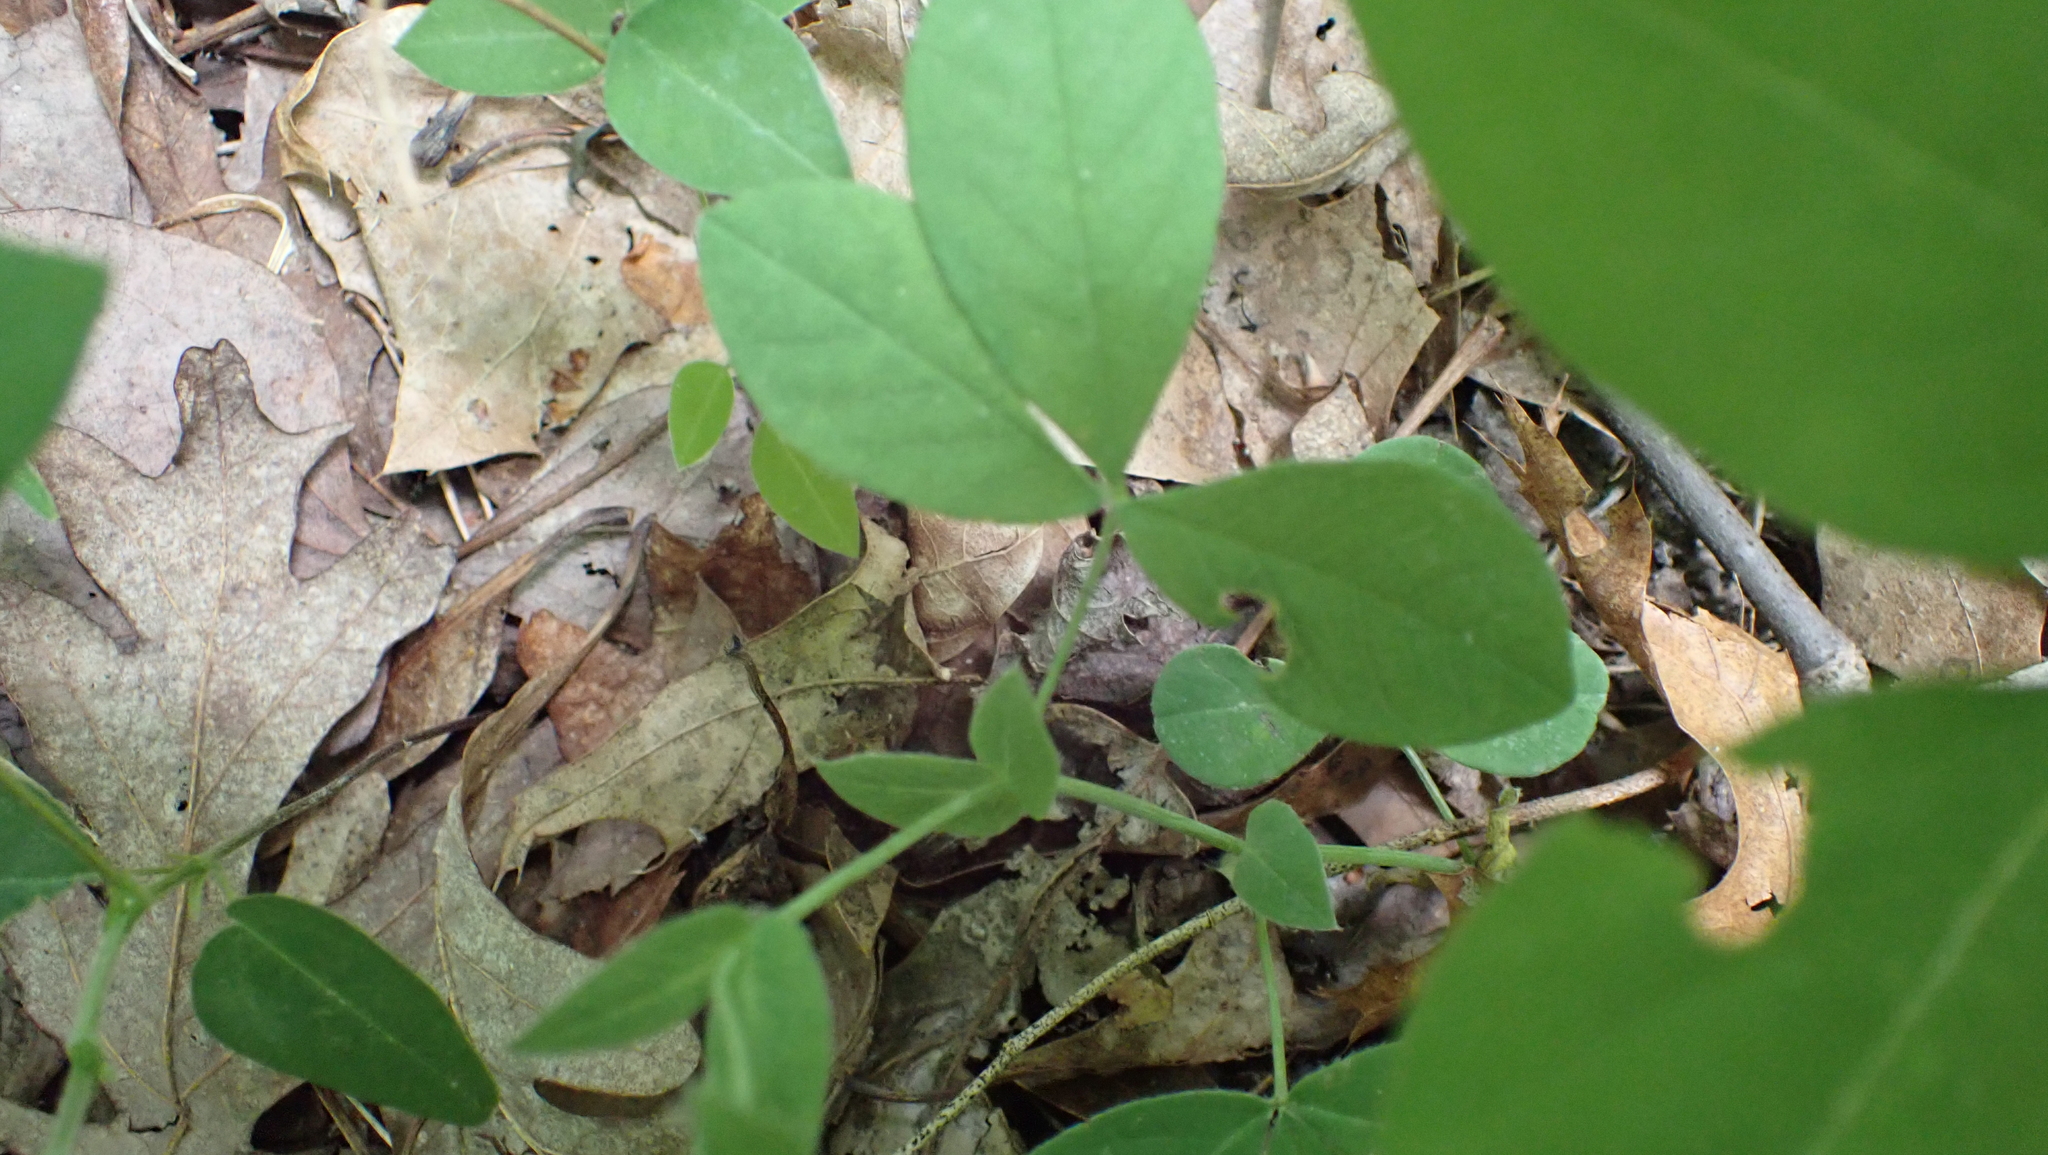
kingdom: Plantae
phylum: Tracheophyta
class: Magnoliopsida
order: Fabales
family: Fabaceae
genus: Thermopsis
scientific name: Thermopsis villosa
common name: Carolina-lupin
